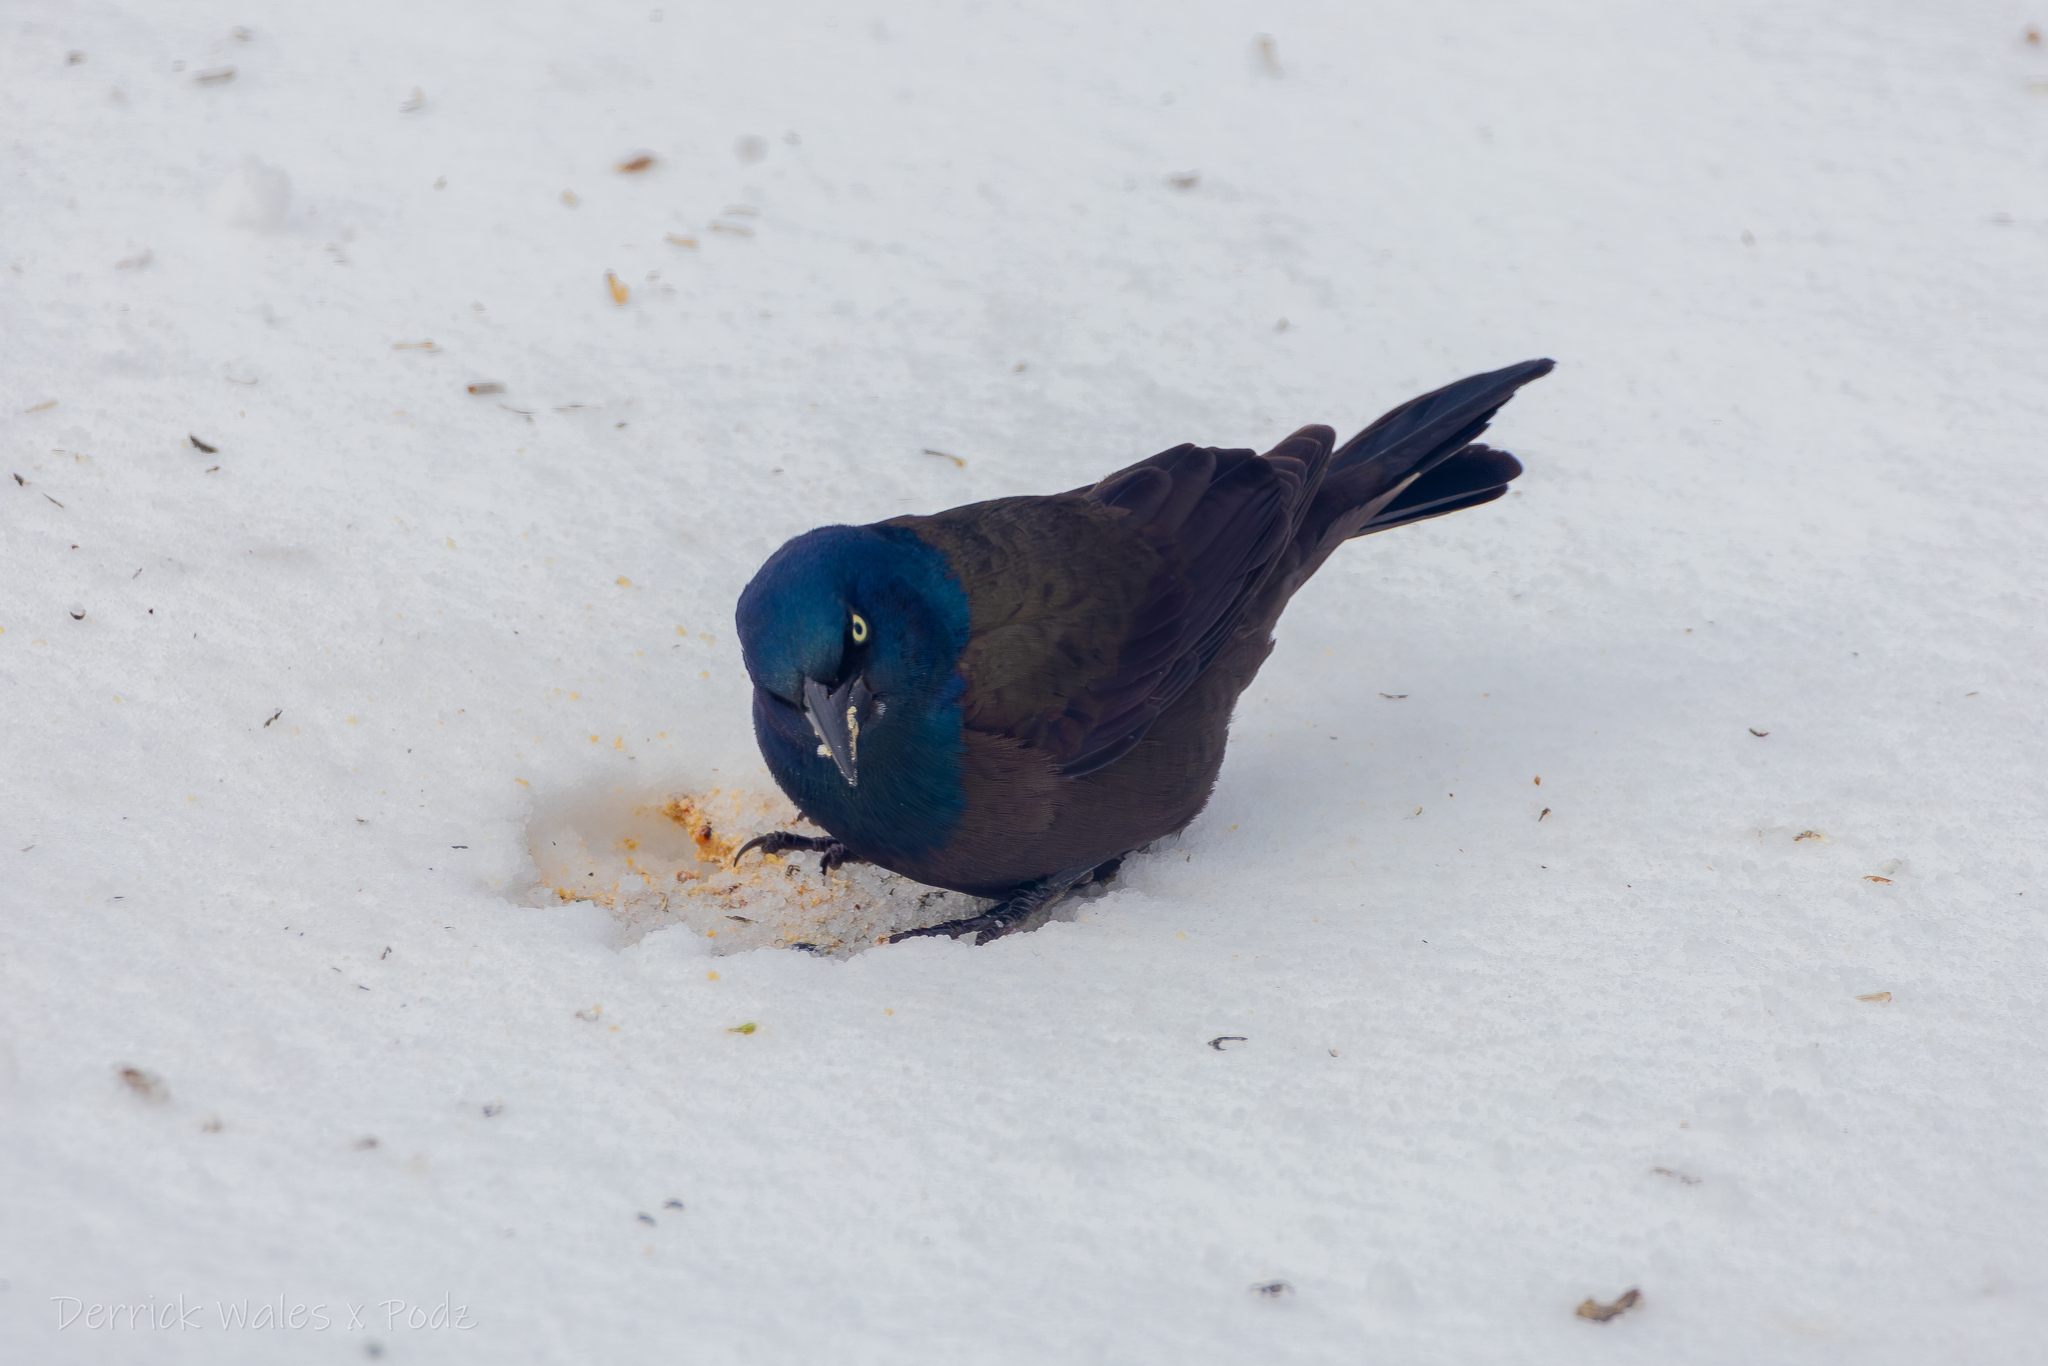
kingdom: Animalia
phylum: Chordata
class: Aves
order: Passeriformes
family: Icteridae
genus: Quiscalus
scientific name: Quiscalus quiscula
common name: Common grackle
